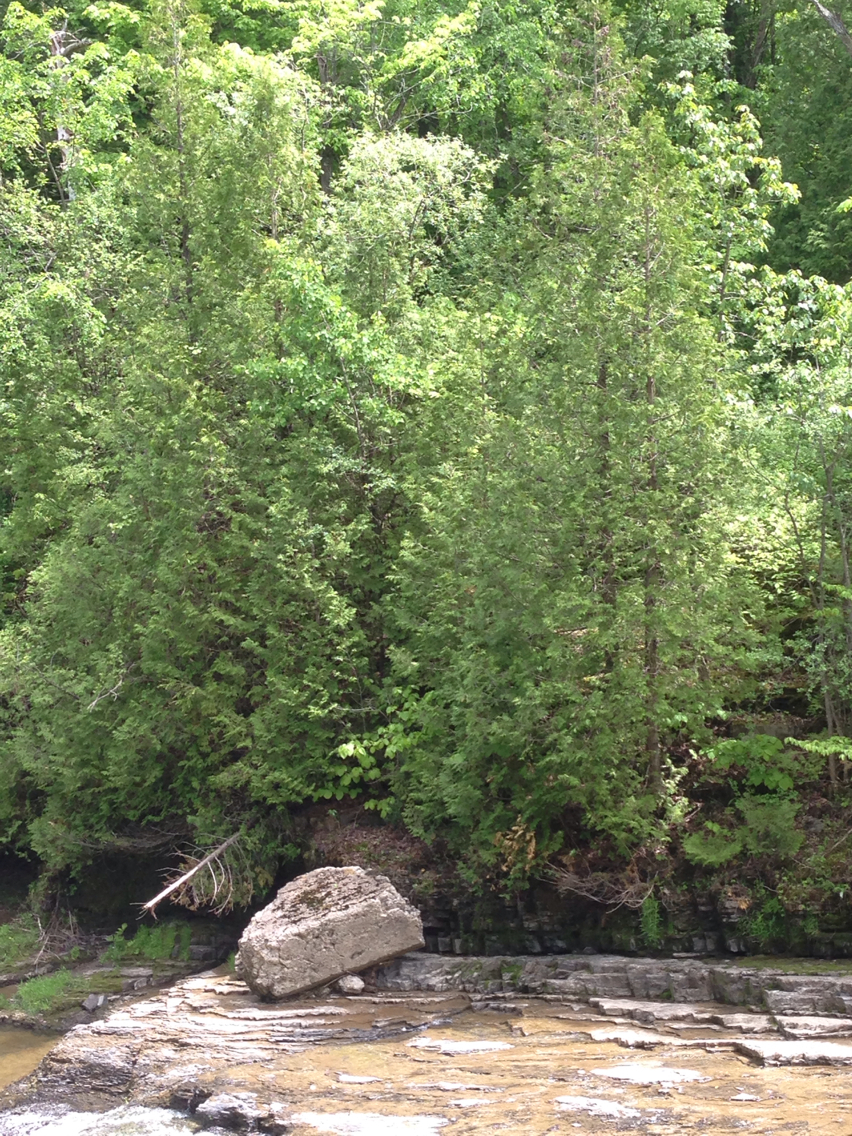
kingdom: Plantae
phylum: Tracheophyta
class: Pinopsida
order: Pinales
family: Cupressaceae
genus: Thuja
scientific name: Thuja occidentalis
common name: Northern white-cedar
